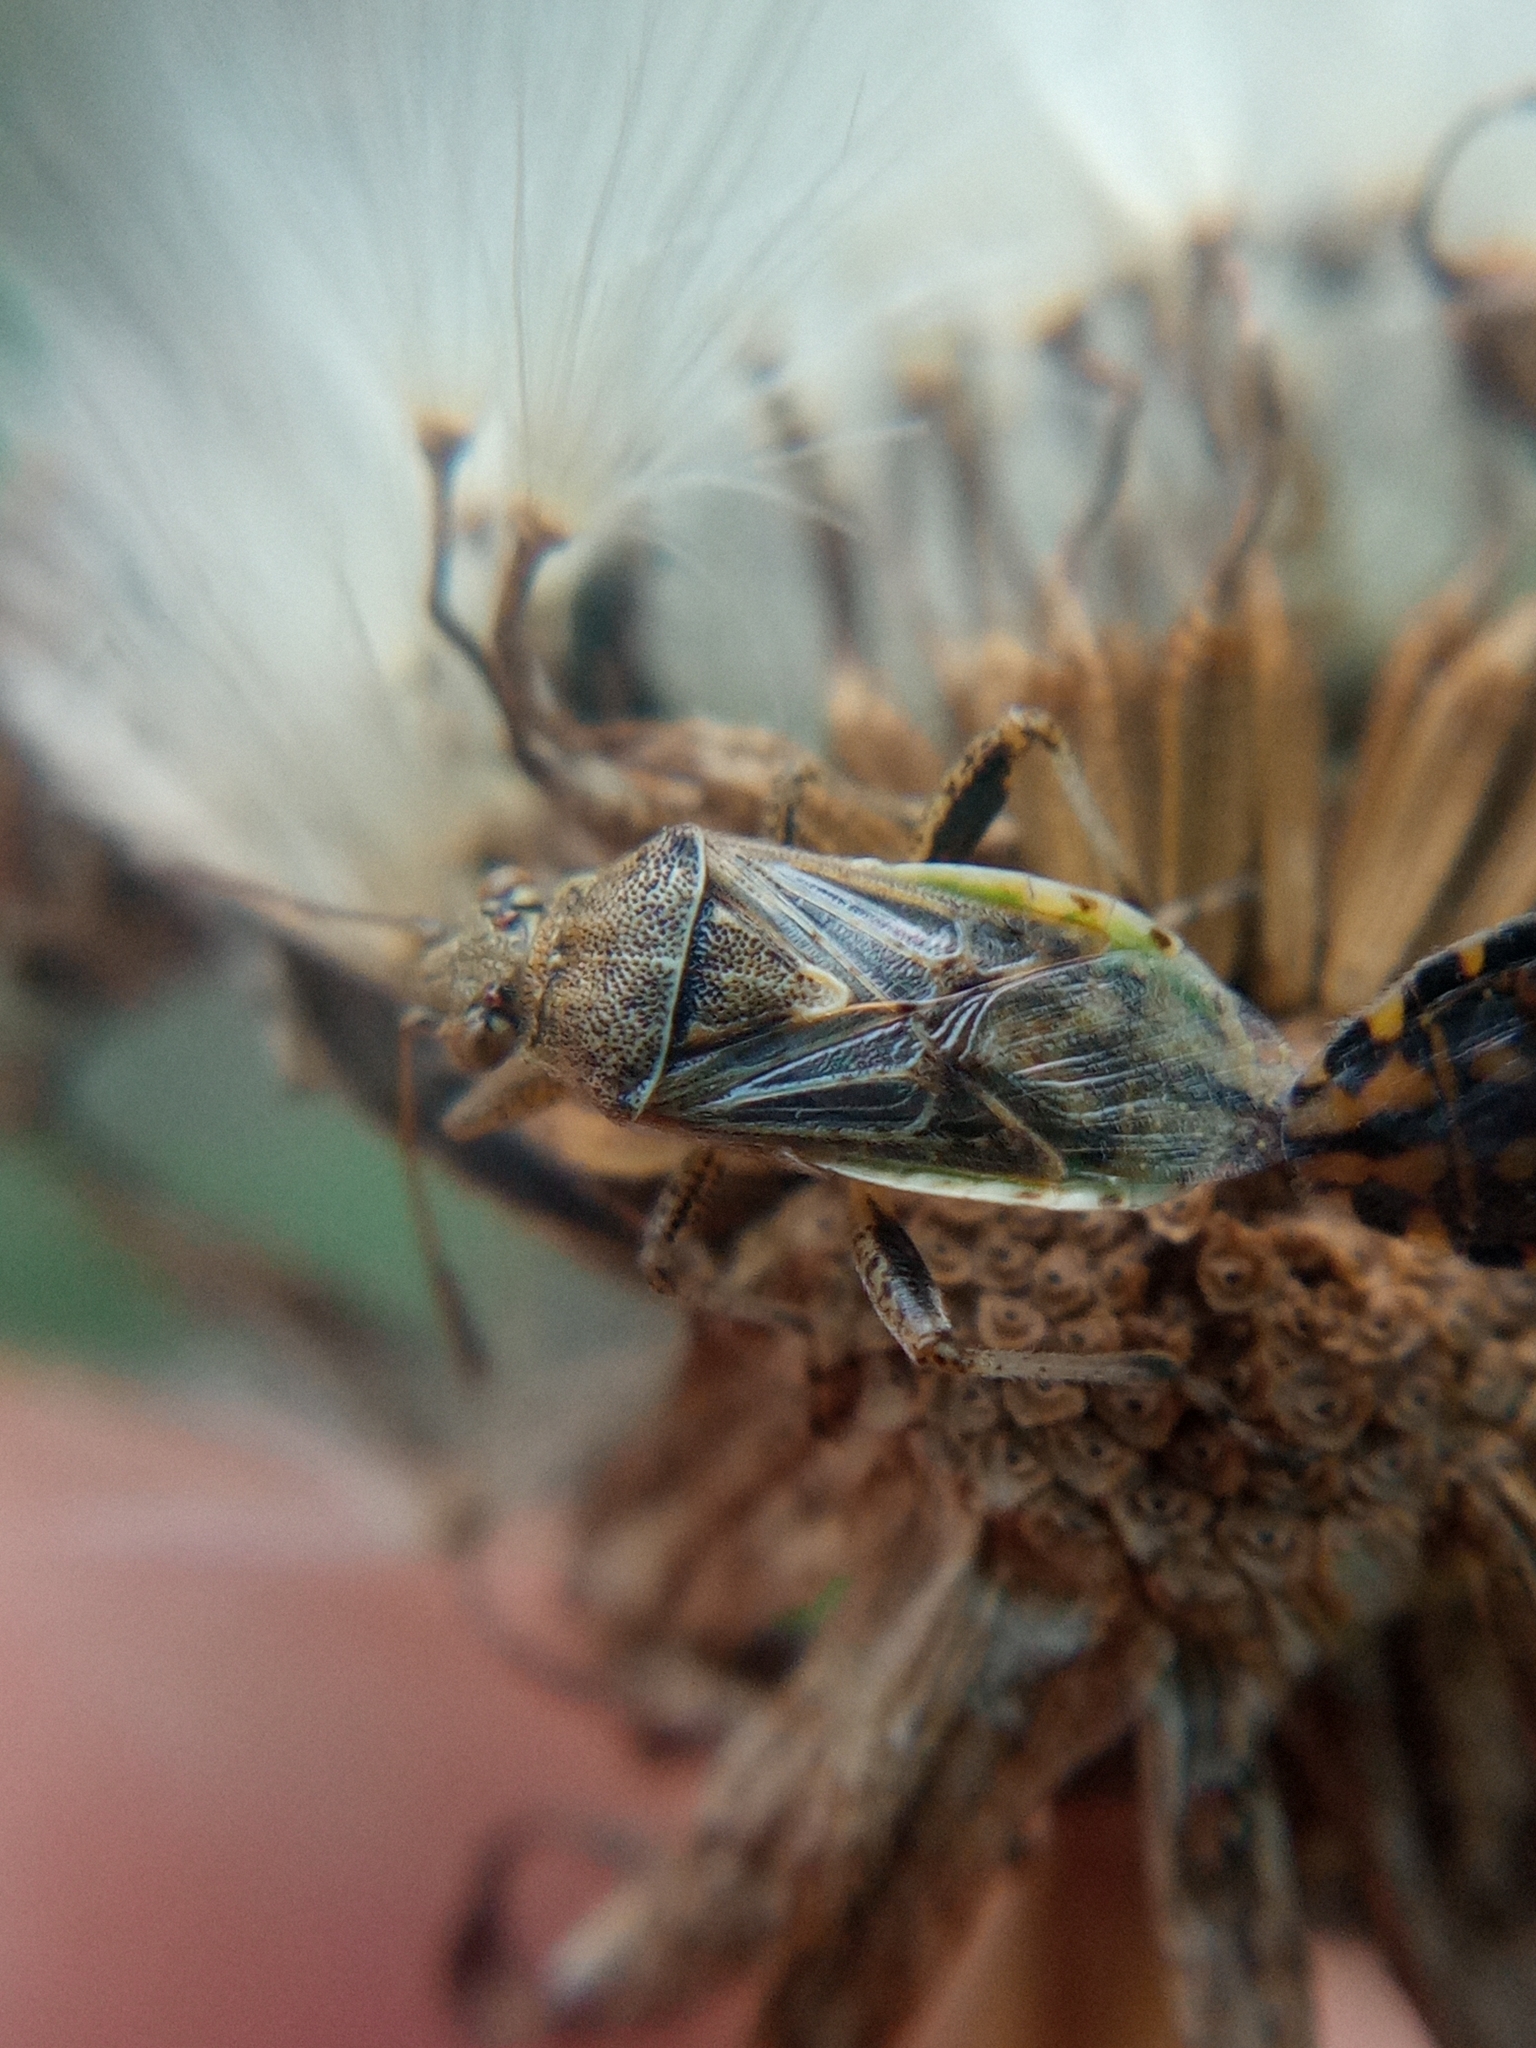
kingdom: Animalia
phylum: Arthropoda
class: Insecta
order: Hemiptera
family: Rhopalidae
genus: Stictopleurus
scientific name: Stictopleurus punctatonervosus
